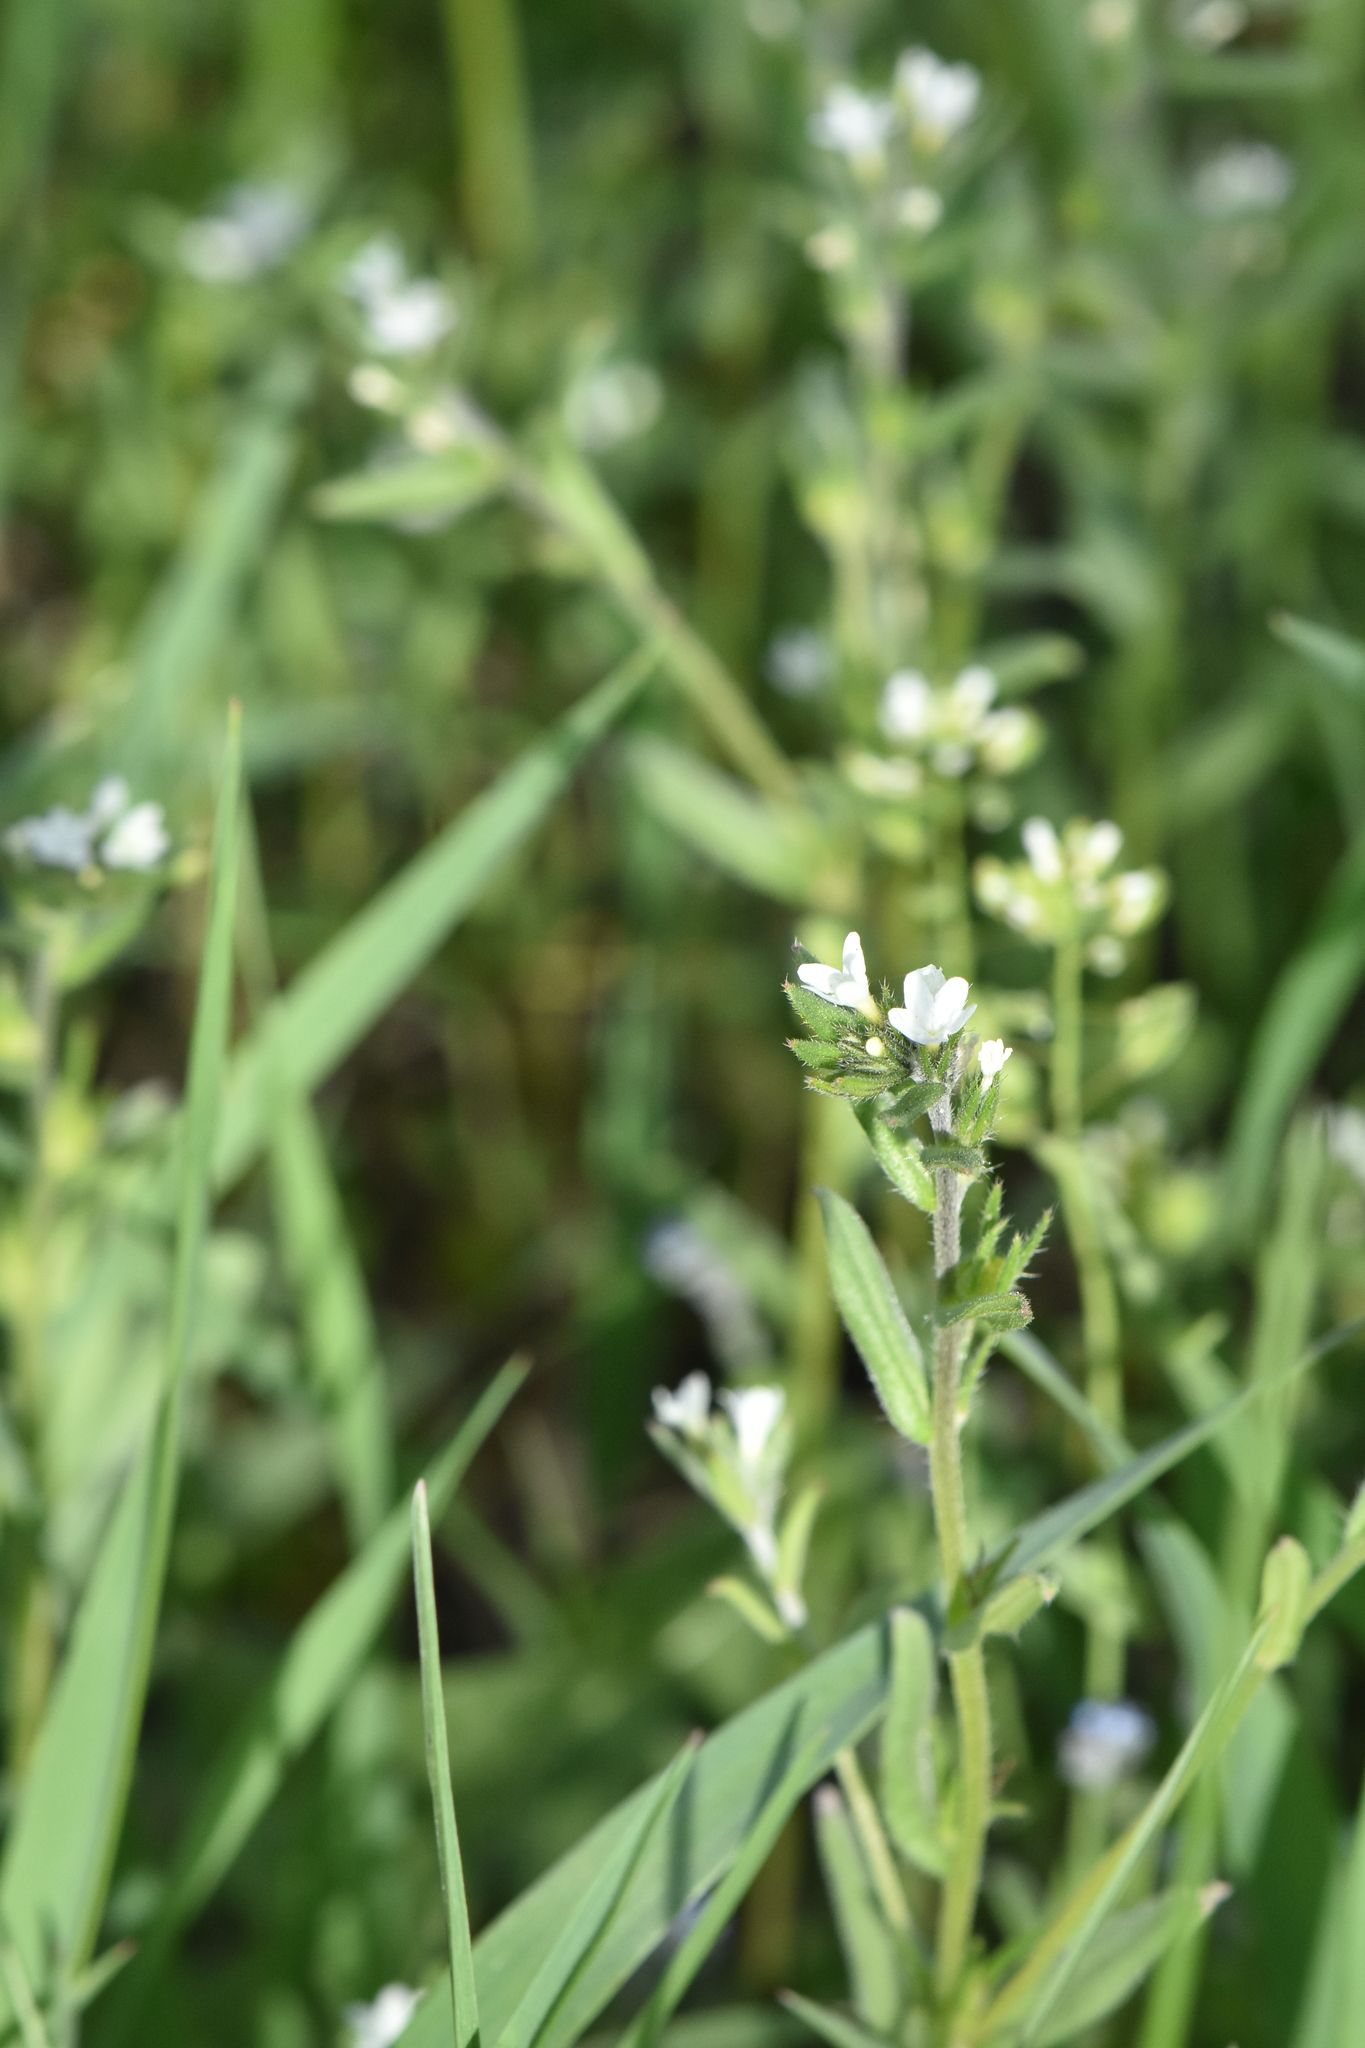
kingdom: Plantae
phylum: Tracheophyta
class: Magnoliopsida
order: Boraginales
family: Boraginaceae
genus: Buglossoides
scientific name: Buglossoides arvensis
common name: Corn gromwell
